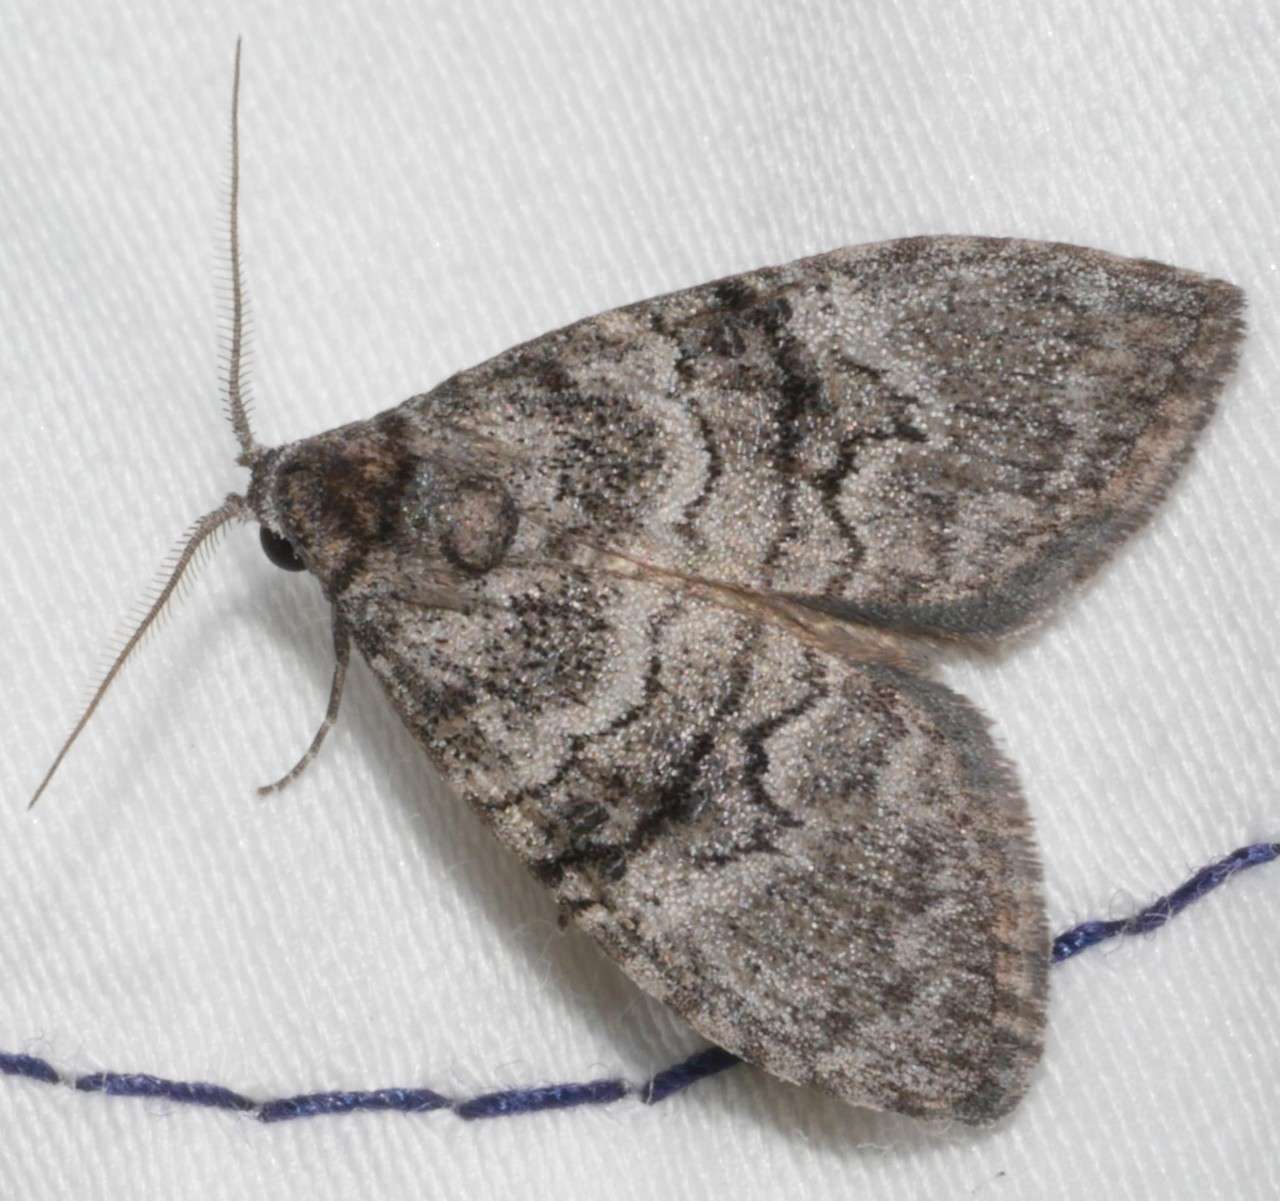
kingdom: Animalia
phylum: Arthropoda
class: Insecta
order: Lepidoptera
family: Nolidae
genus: Uraba
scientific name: Uraba lugens
